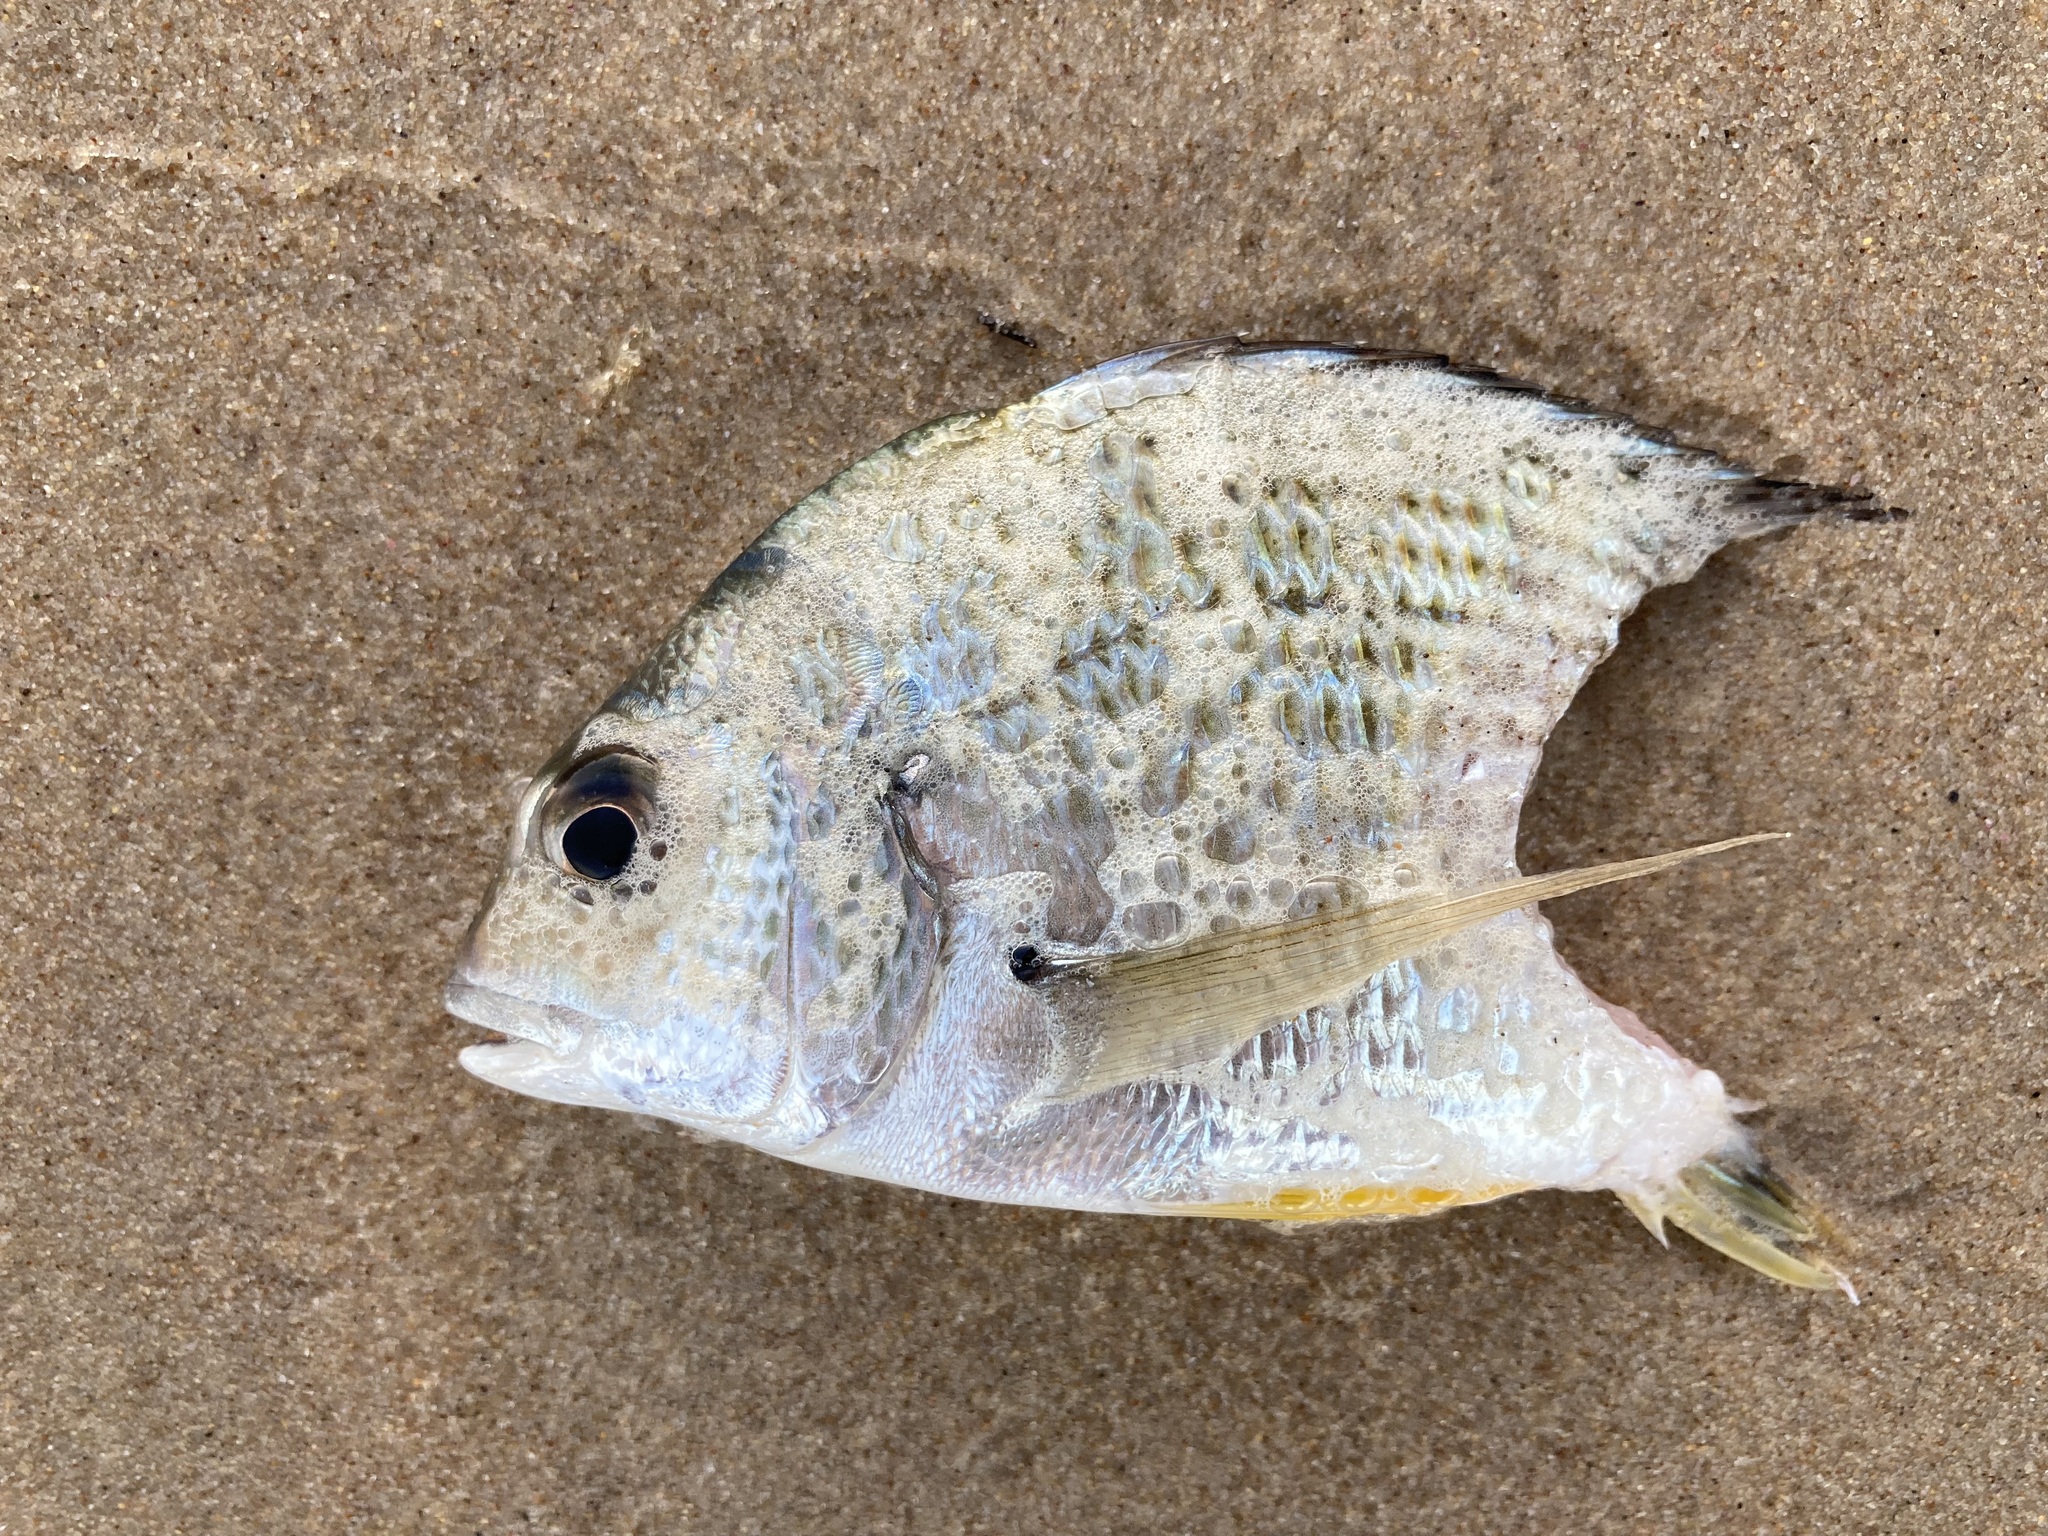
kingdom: Animalia
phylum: Chordata
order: Perciformes
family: Sparidae
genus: Acanthopagrus
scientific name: Acanthopagrus australis
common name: Surf bream
